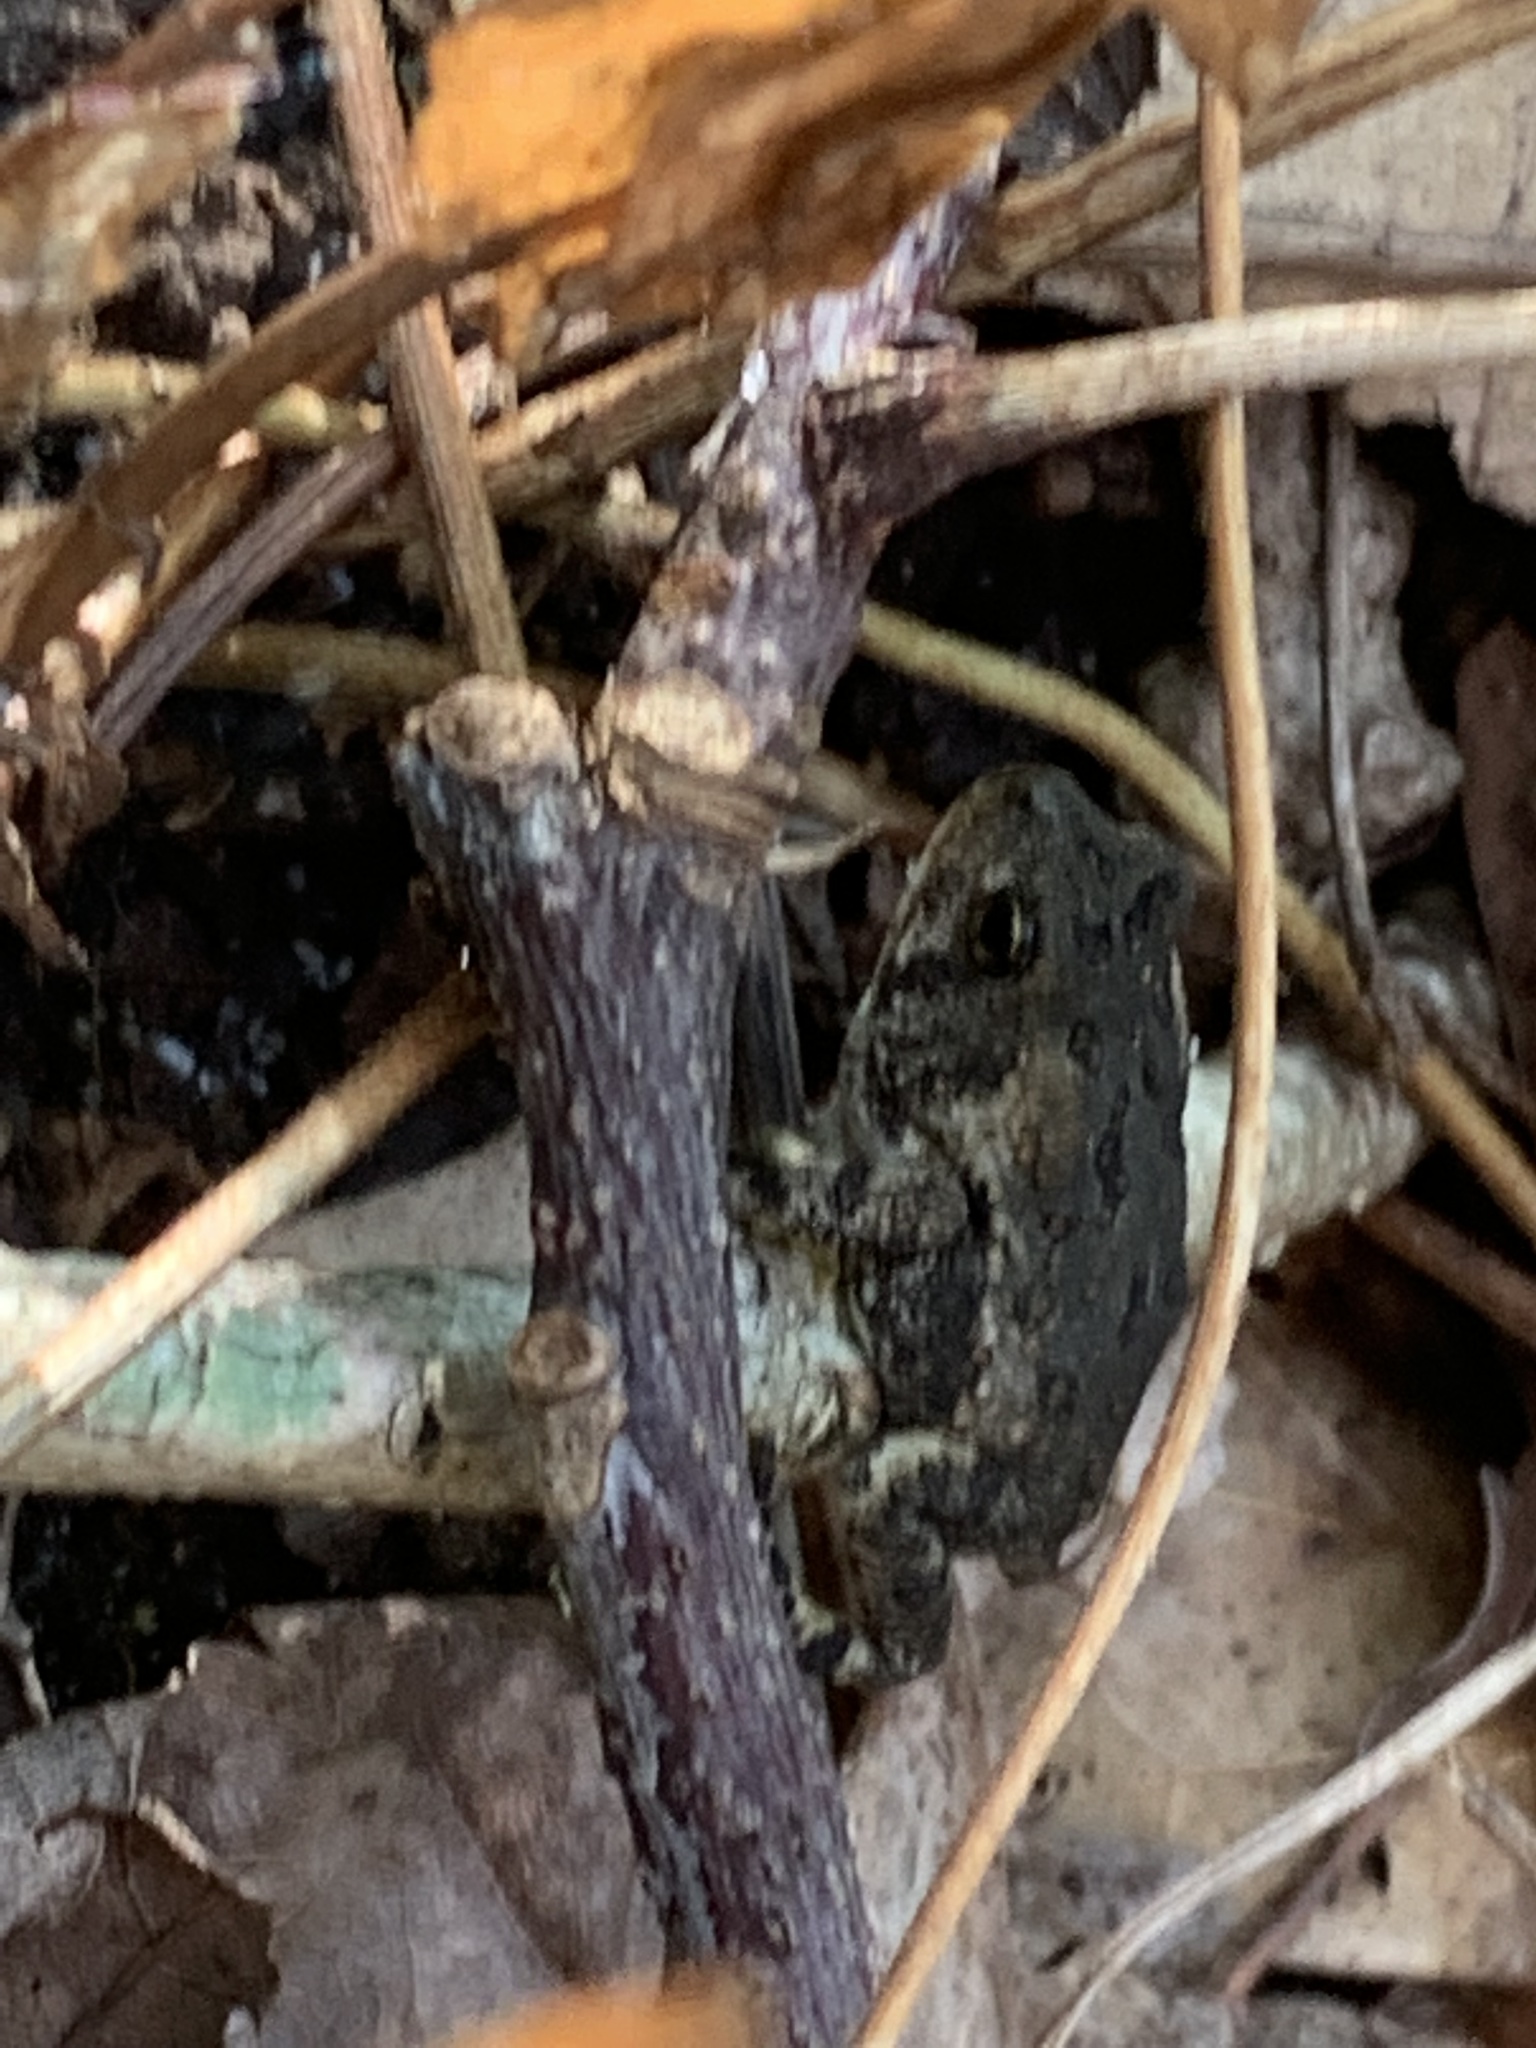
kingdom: Animalia
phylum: Chordata
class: Amphibia
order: Anura
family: Bufonidae
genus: Anaxyrus
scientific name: Anaxyrus fowleri
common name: Fowler's toad
